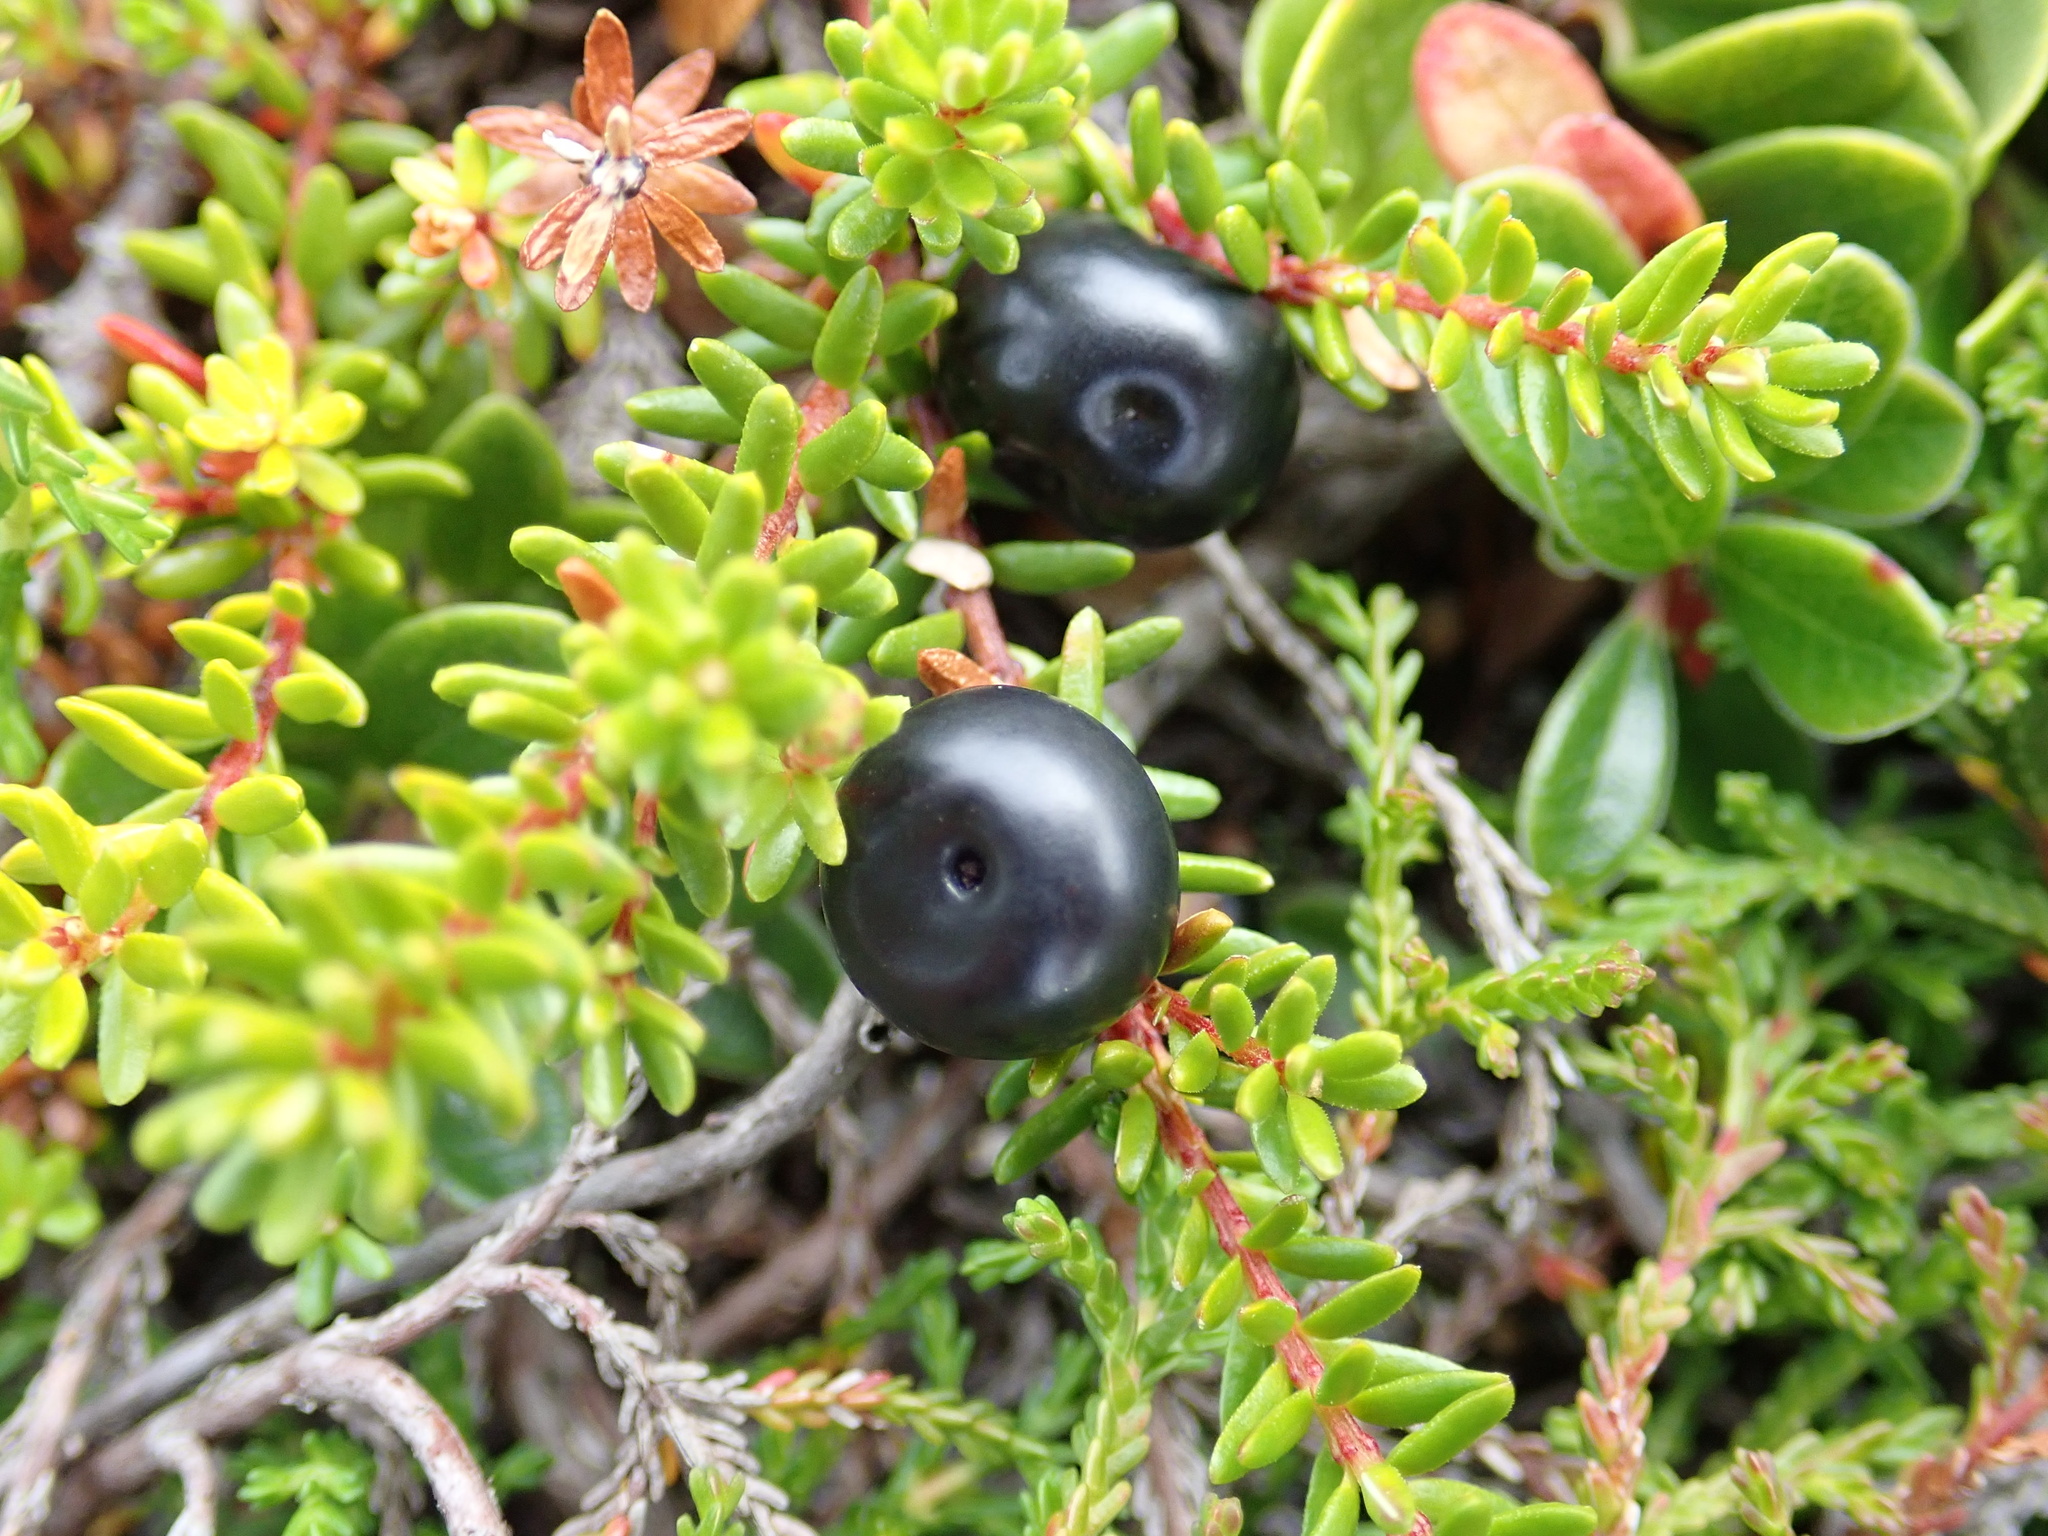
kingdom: Plantae
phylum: Tracheophyta
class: Magnoliopsida
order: Ericales
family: Ericaceae
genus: Empetrum
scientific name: Empetrum nigrum
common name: Black crowberry
